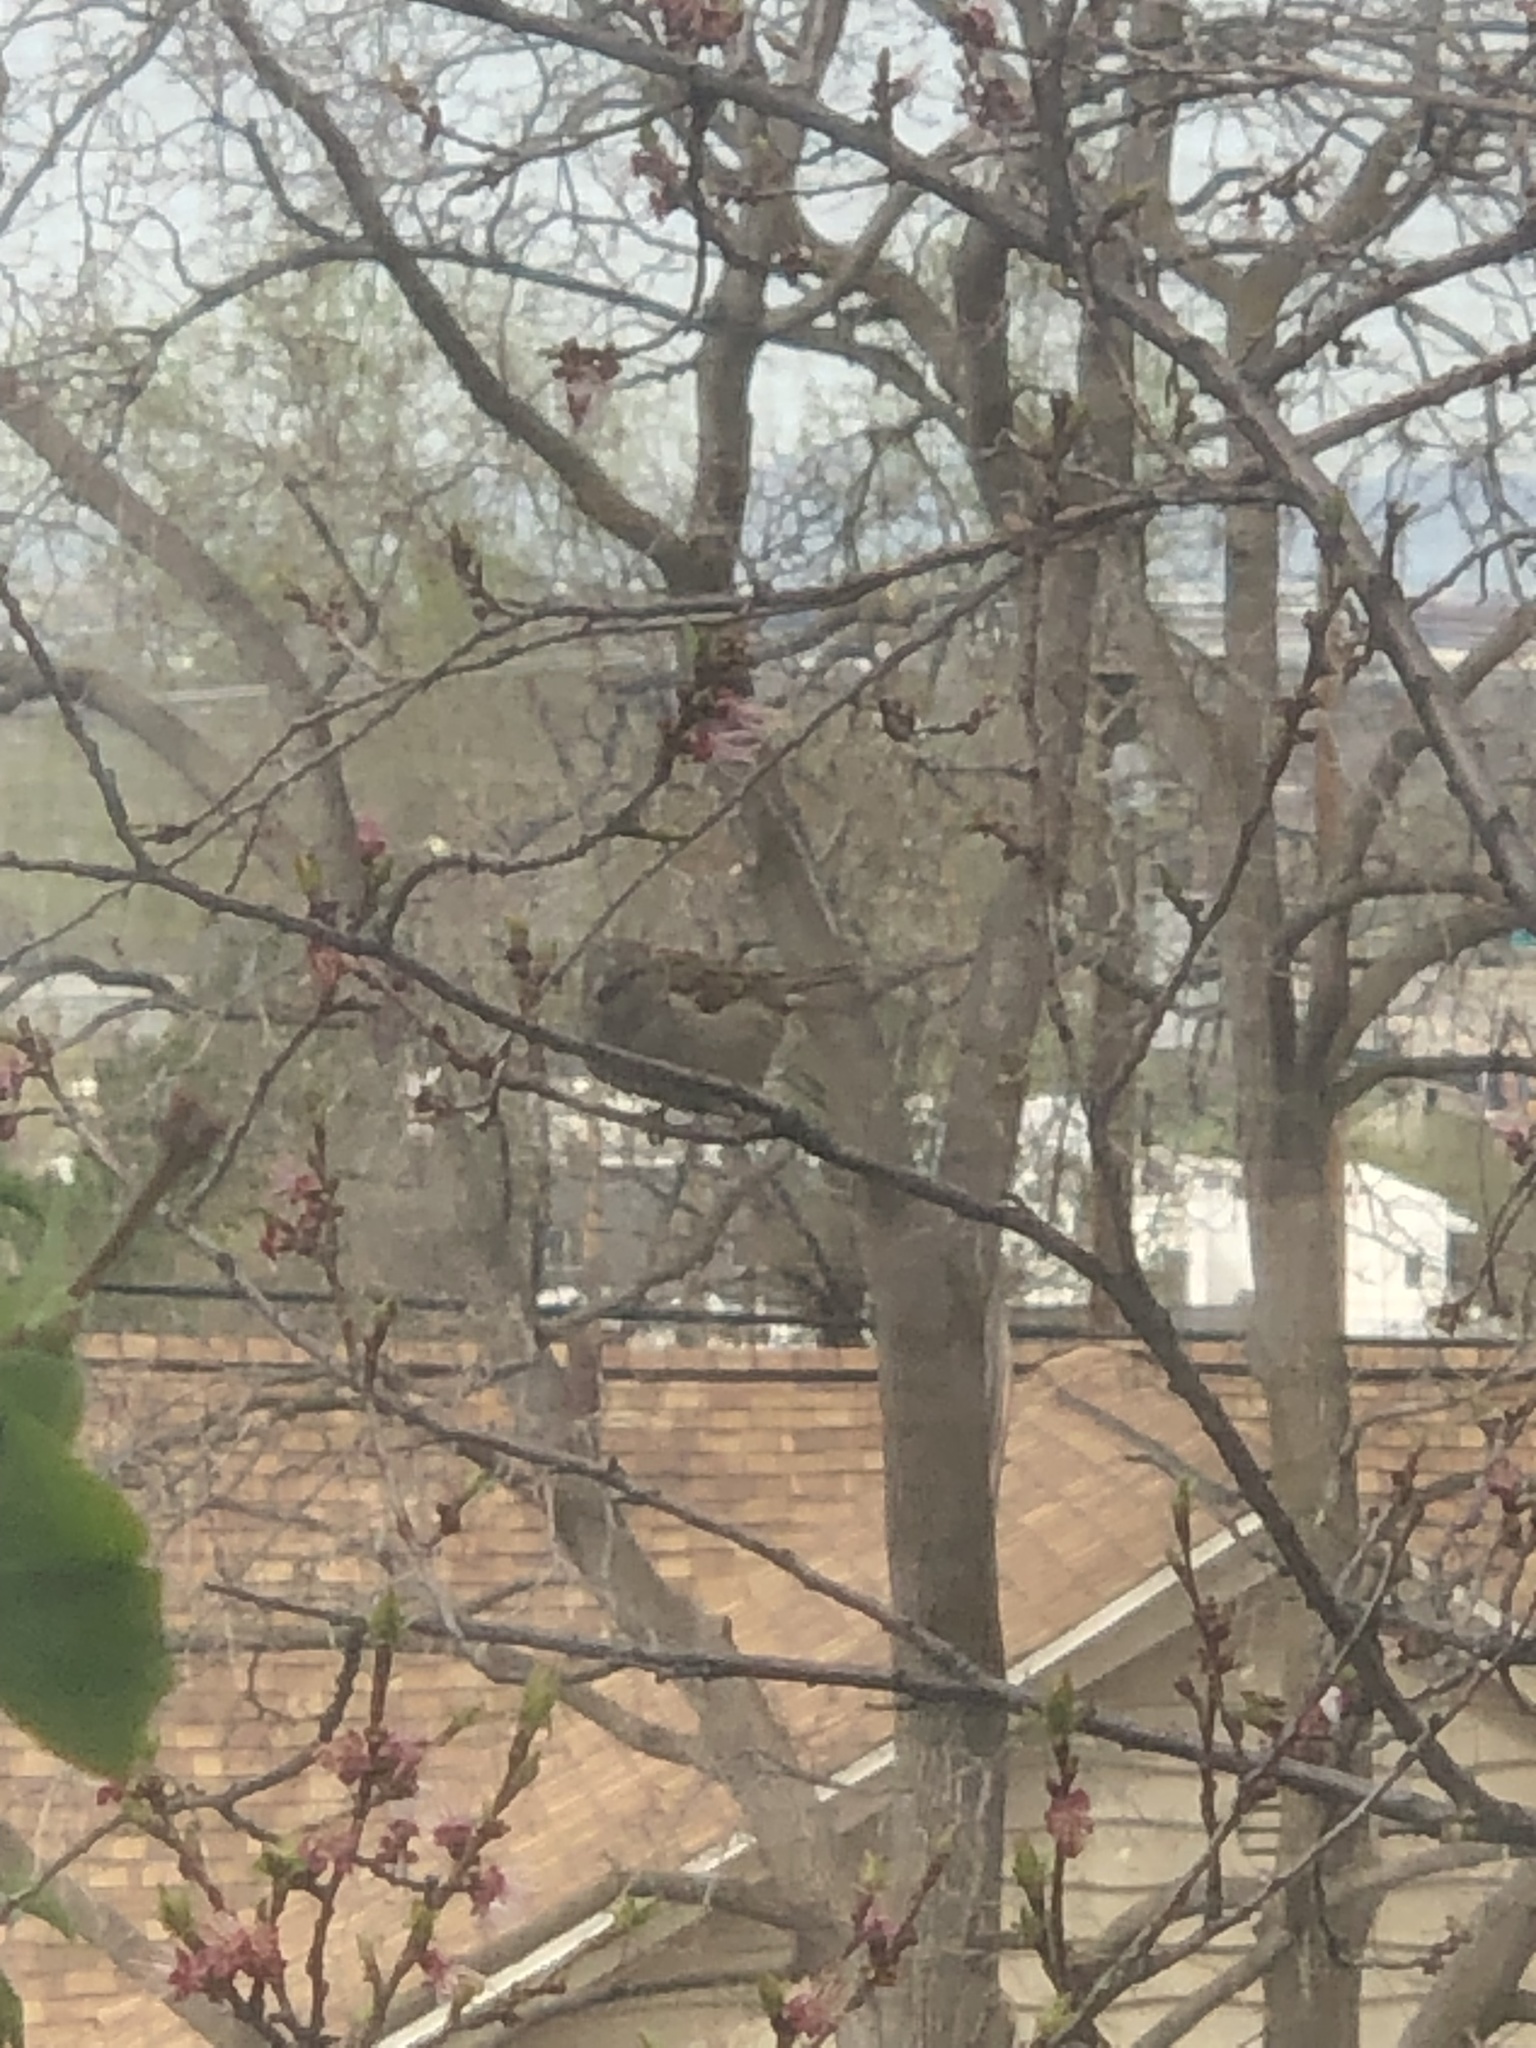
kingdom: Animalia
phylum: Chordata
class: Aves
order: Passeriformes
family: Passeridae
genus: Passer
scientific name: Passer domesticus
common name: House sparrow
